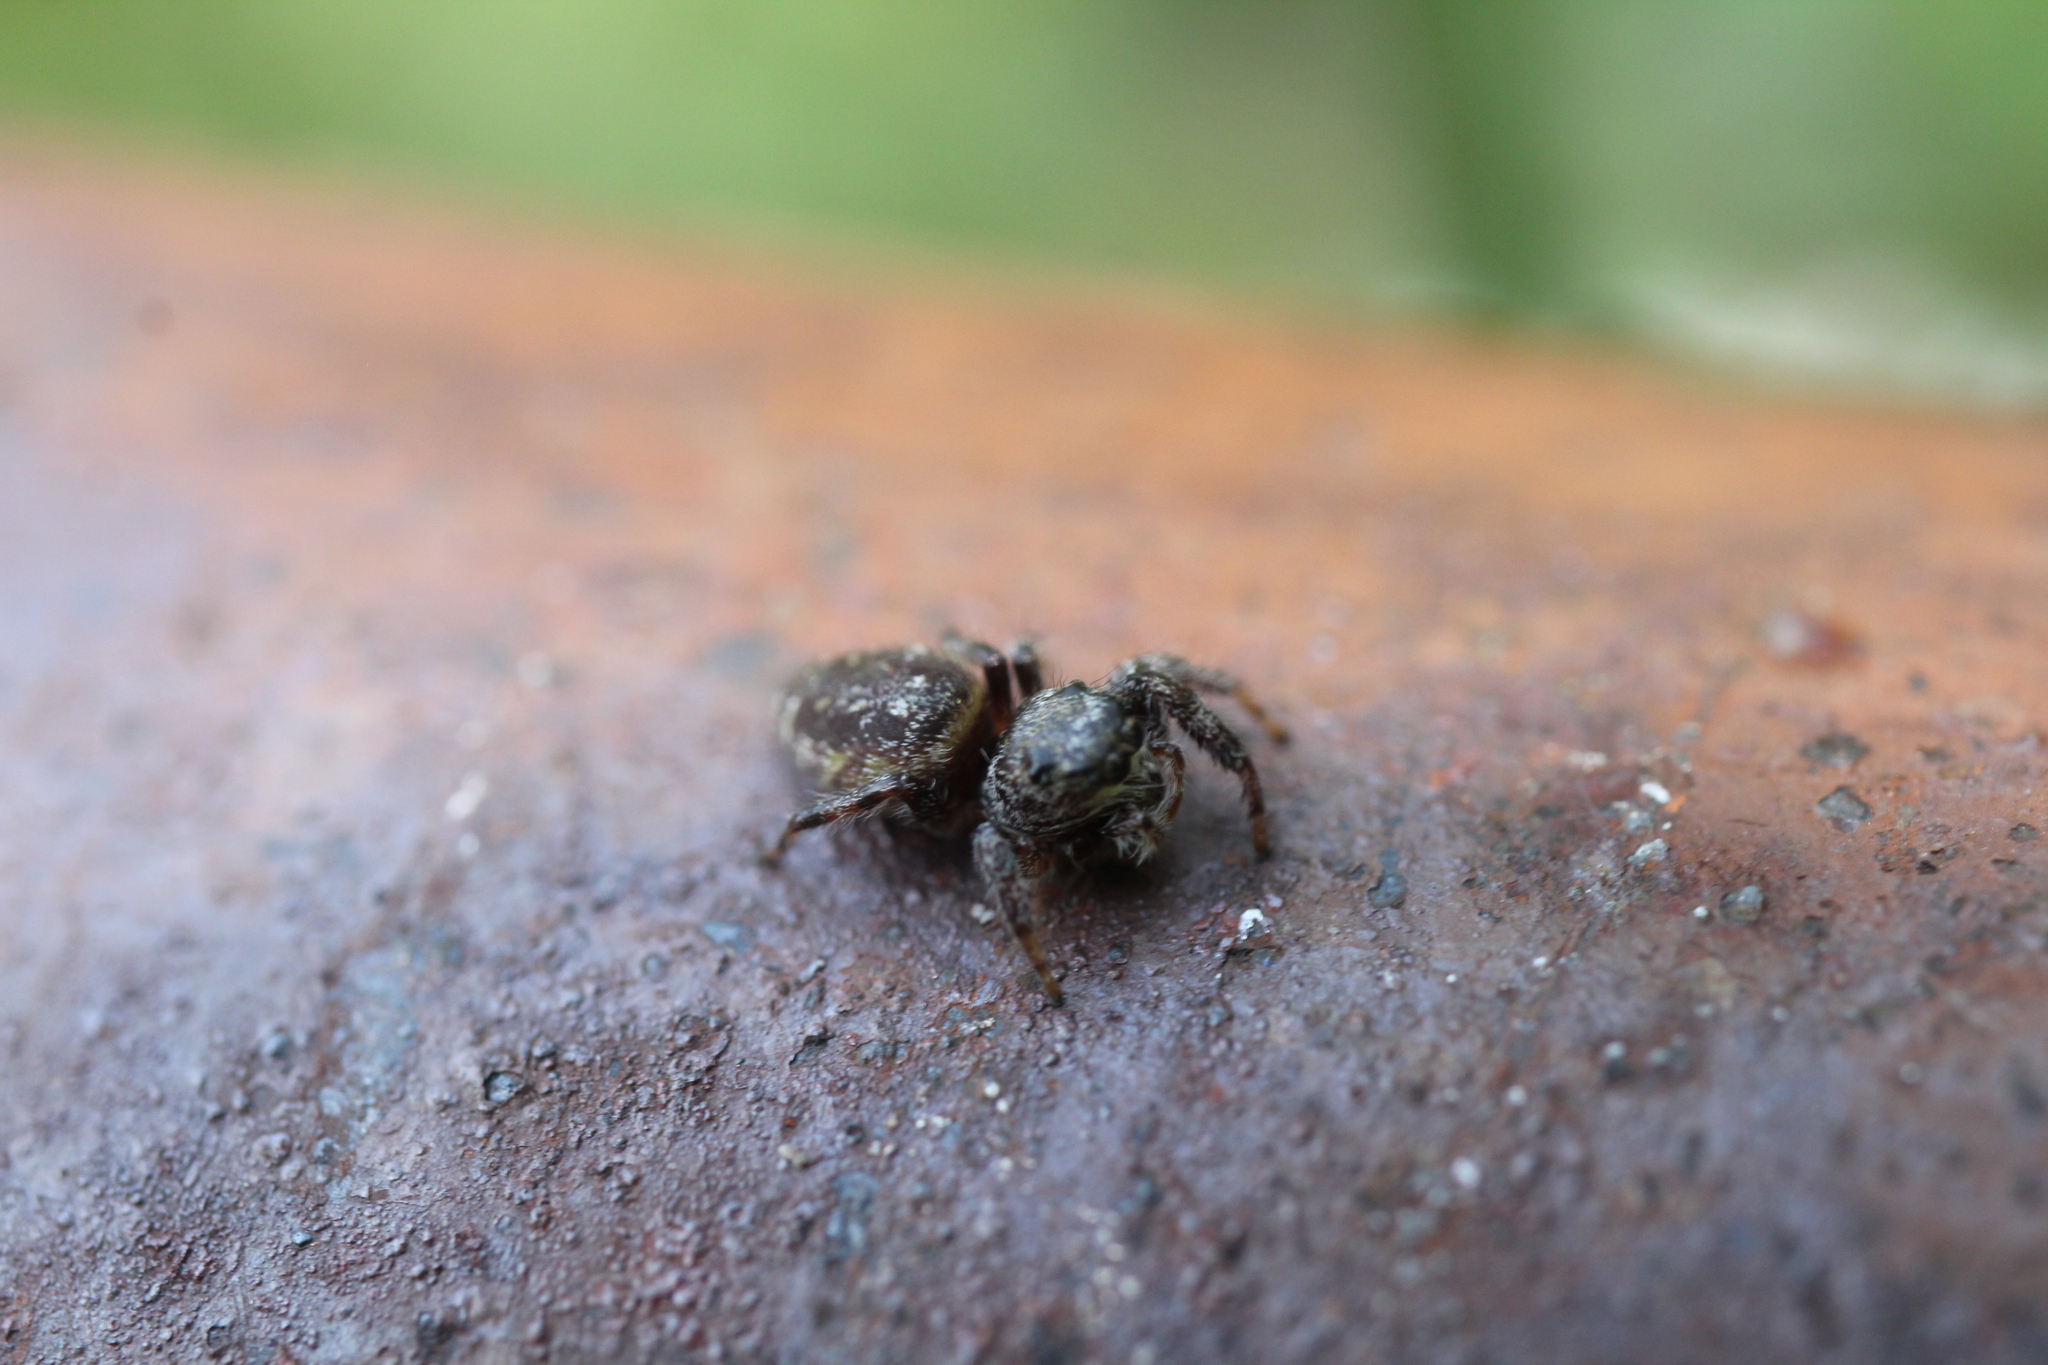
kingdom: Animalia
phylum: Arthropoda
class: Arachnida
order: Araneae
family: Salticidae
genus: Eris
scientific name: Eris militaris
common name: Bronze jumper
